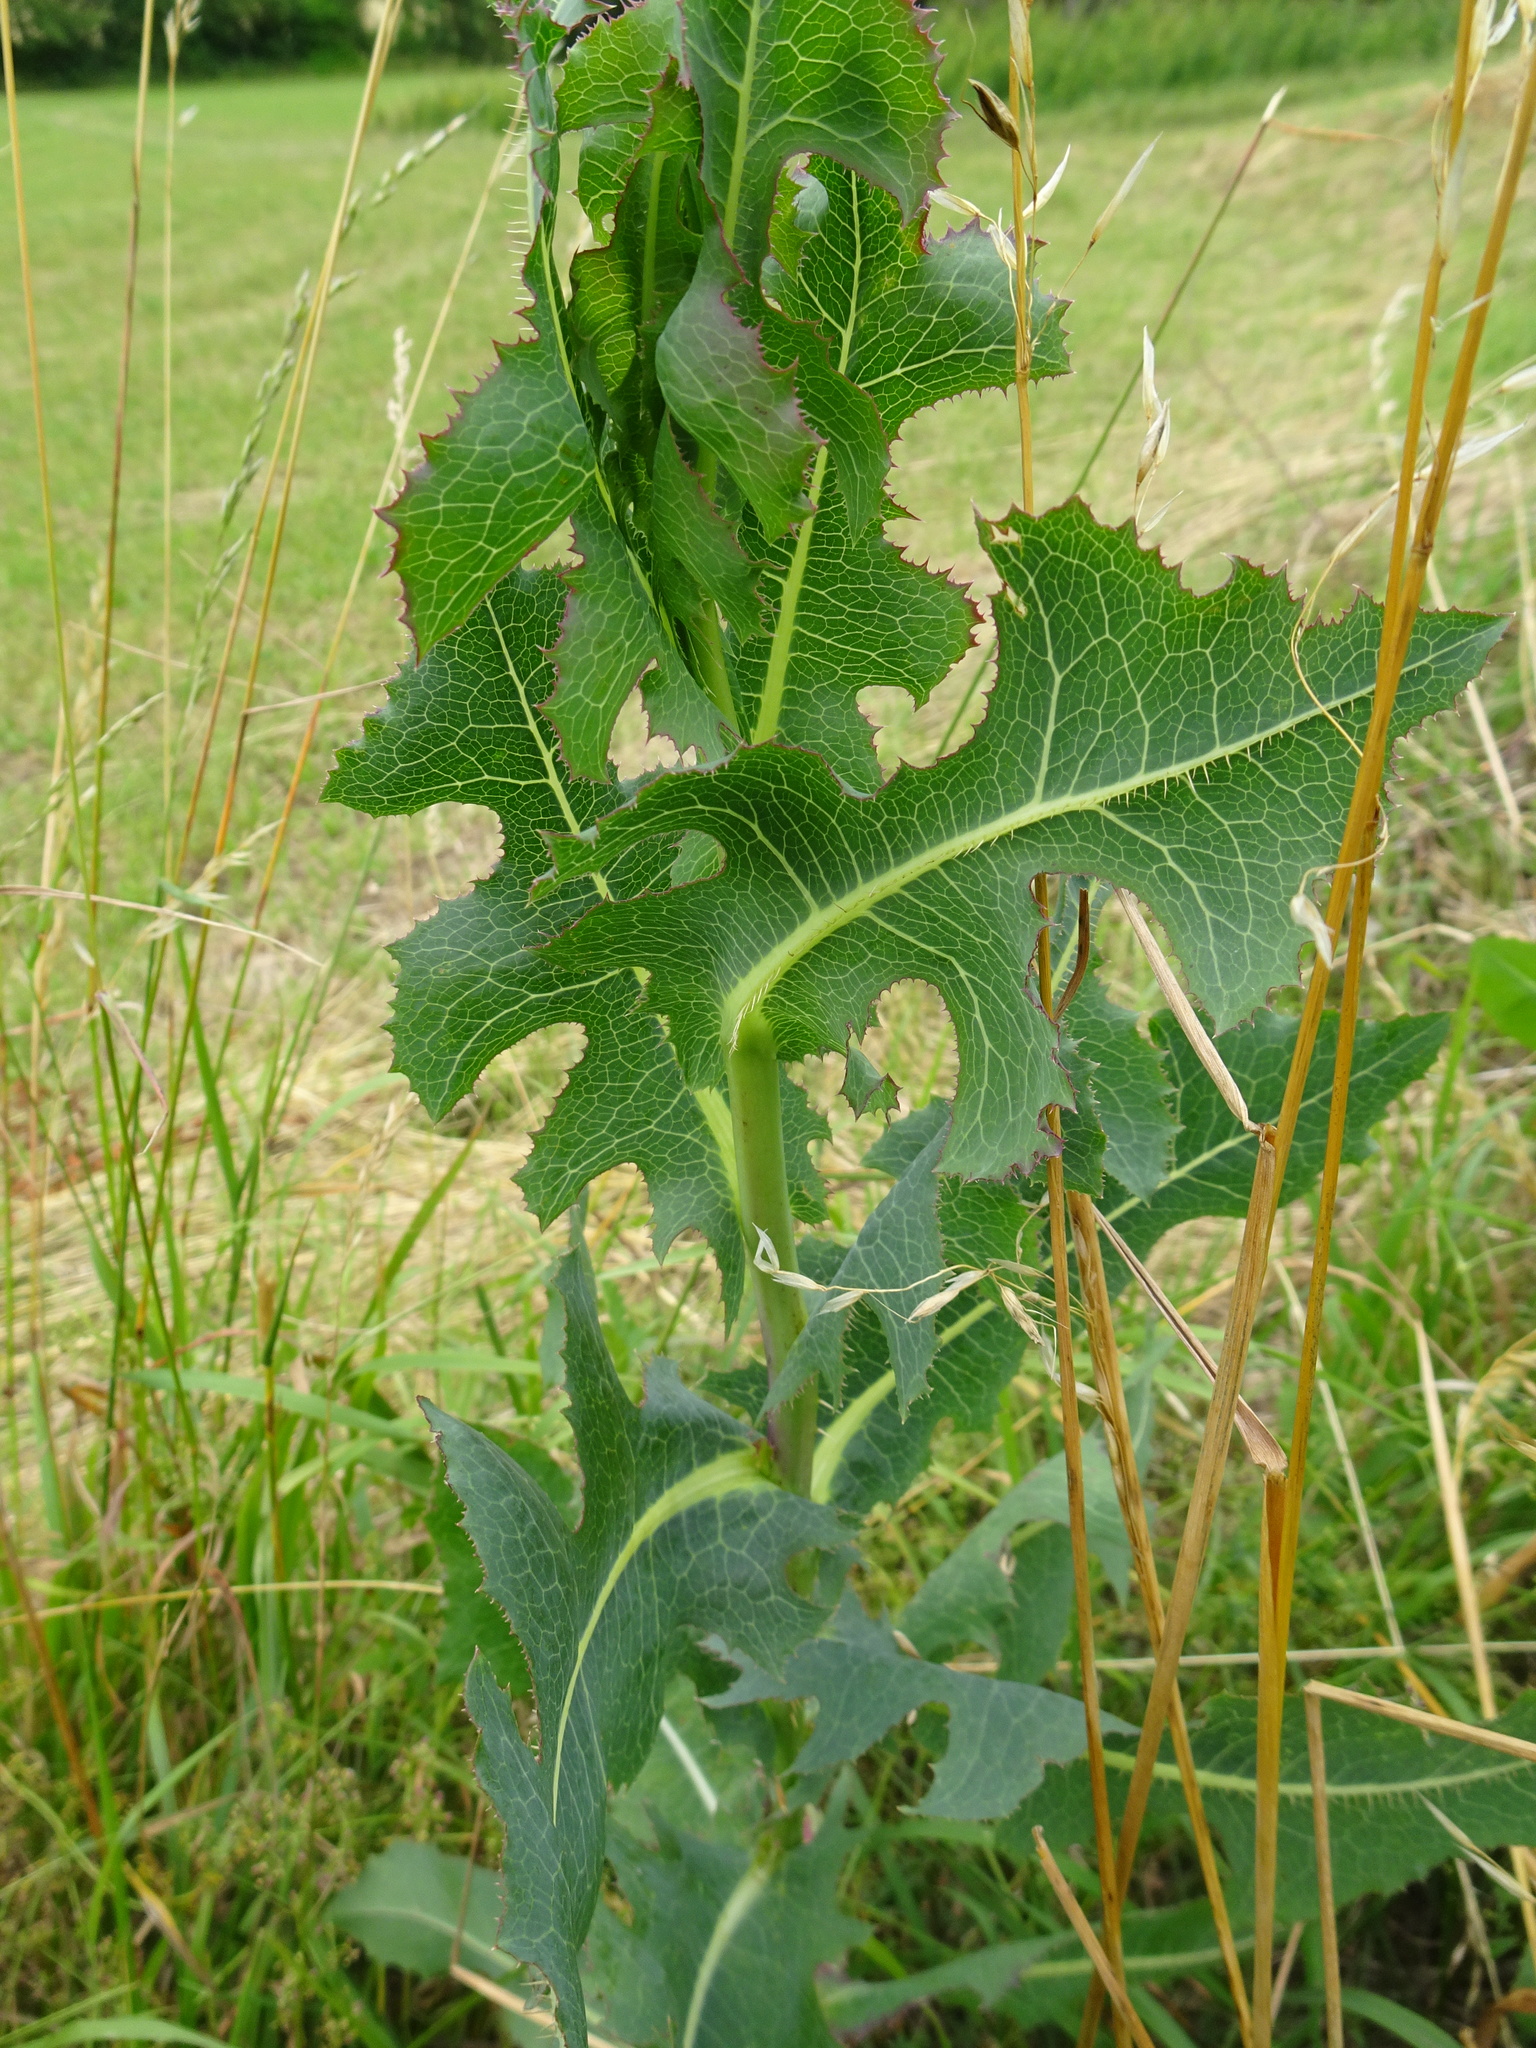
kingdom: Plantae
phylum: Tracheophyta
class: Magnoliopsida
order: Asterales
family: Asteraceae
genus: Lactuca
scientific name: Lactuca serriola
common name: Prickly lettuce
